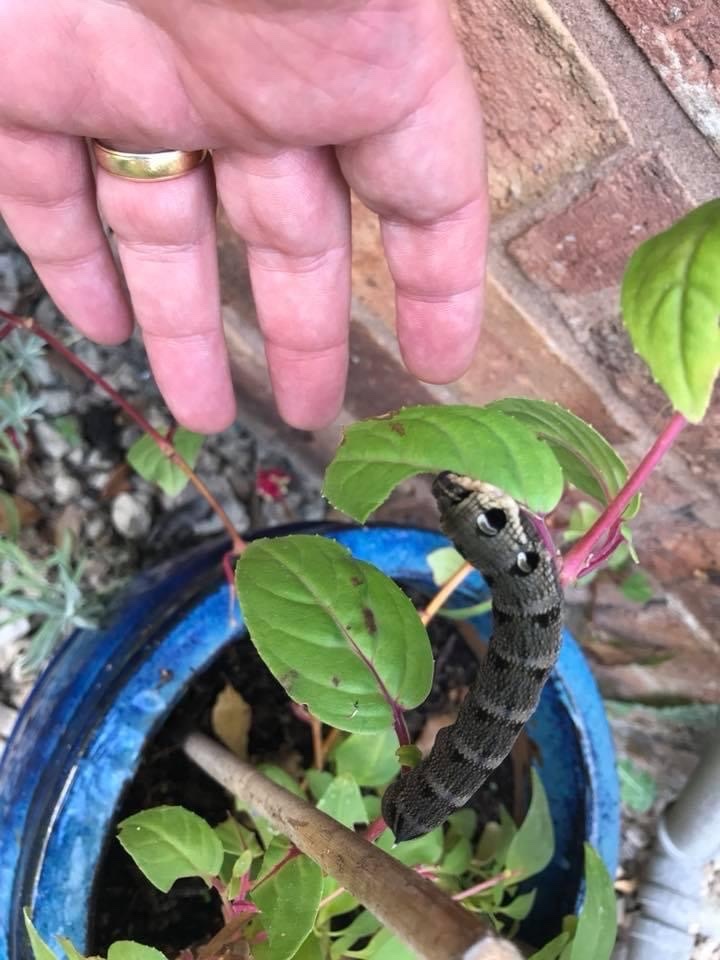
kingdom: Animalia
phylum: Arthropoda
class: Insecta
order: Lepidoptera
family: Sphingidae
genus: Deilephila
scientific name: Deilephila elpenor
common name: Elephant hawk-moth
